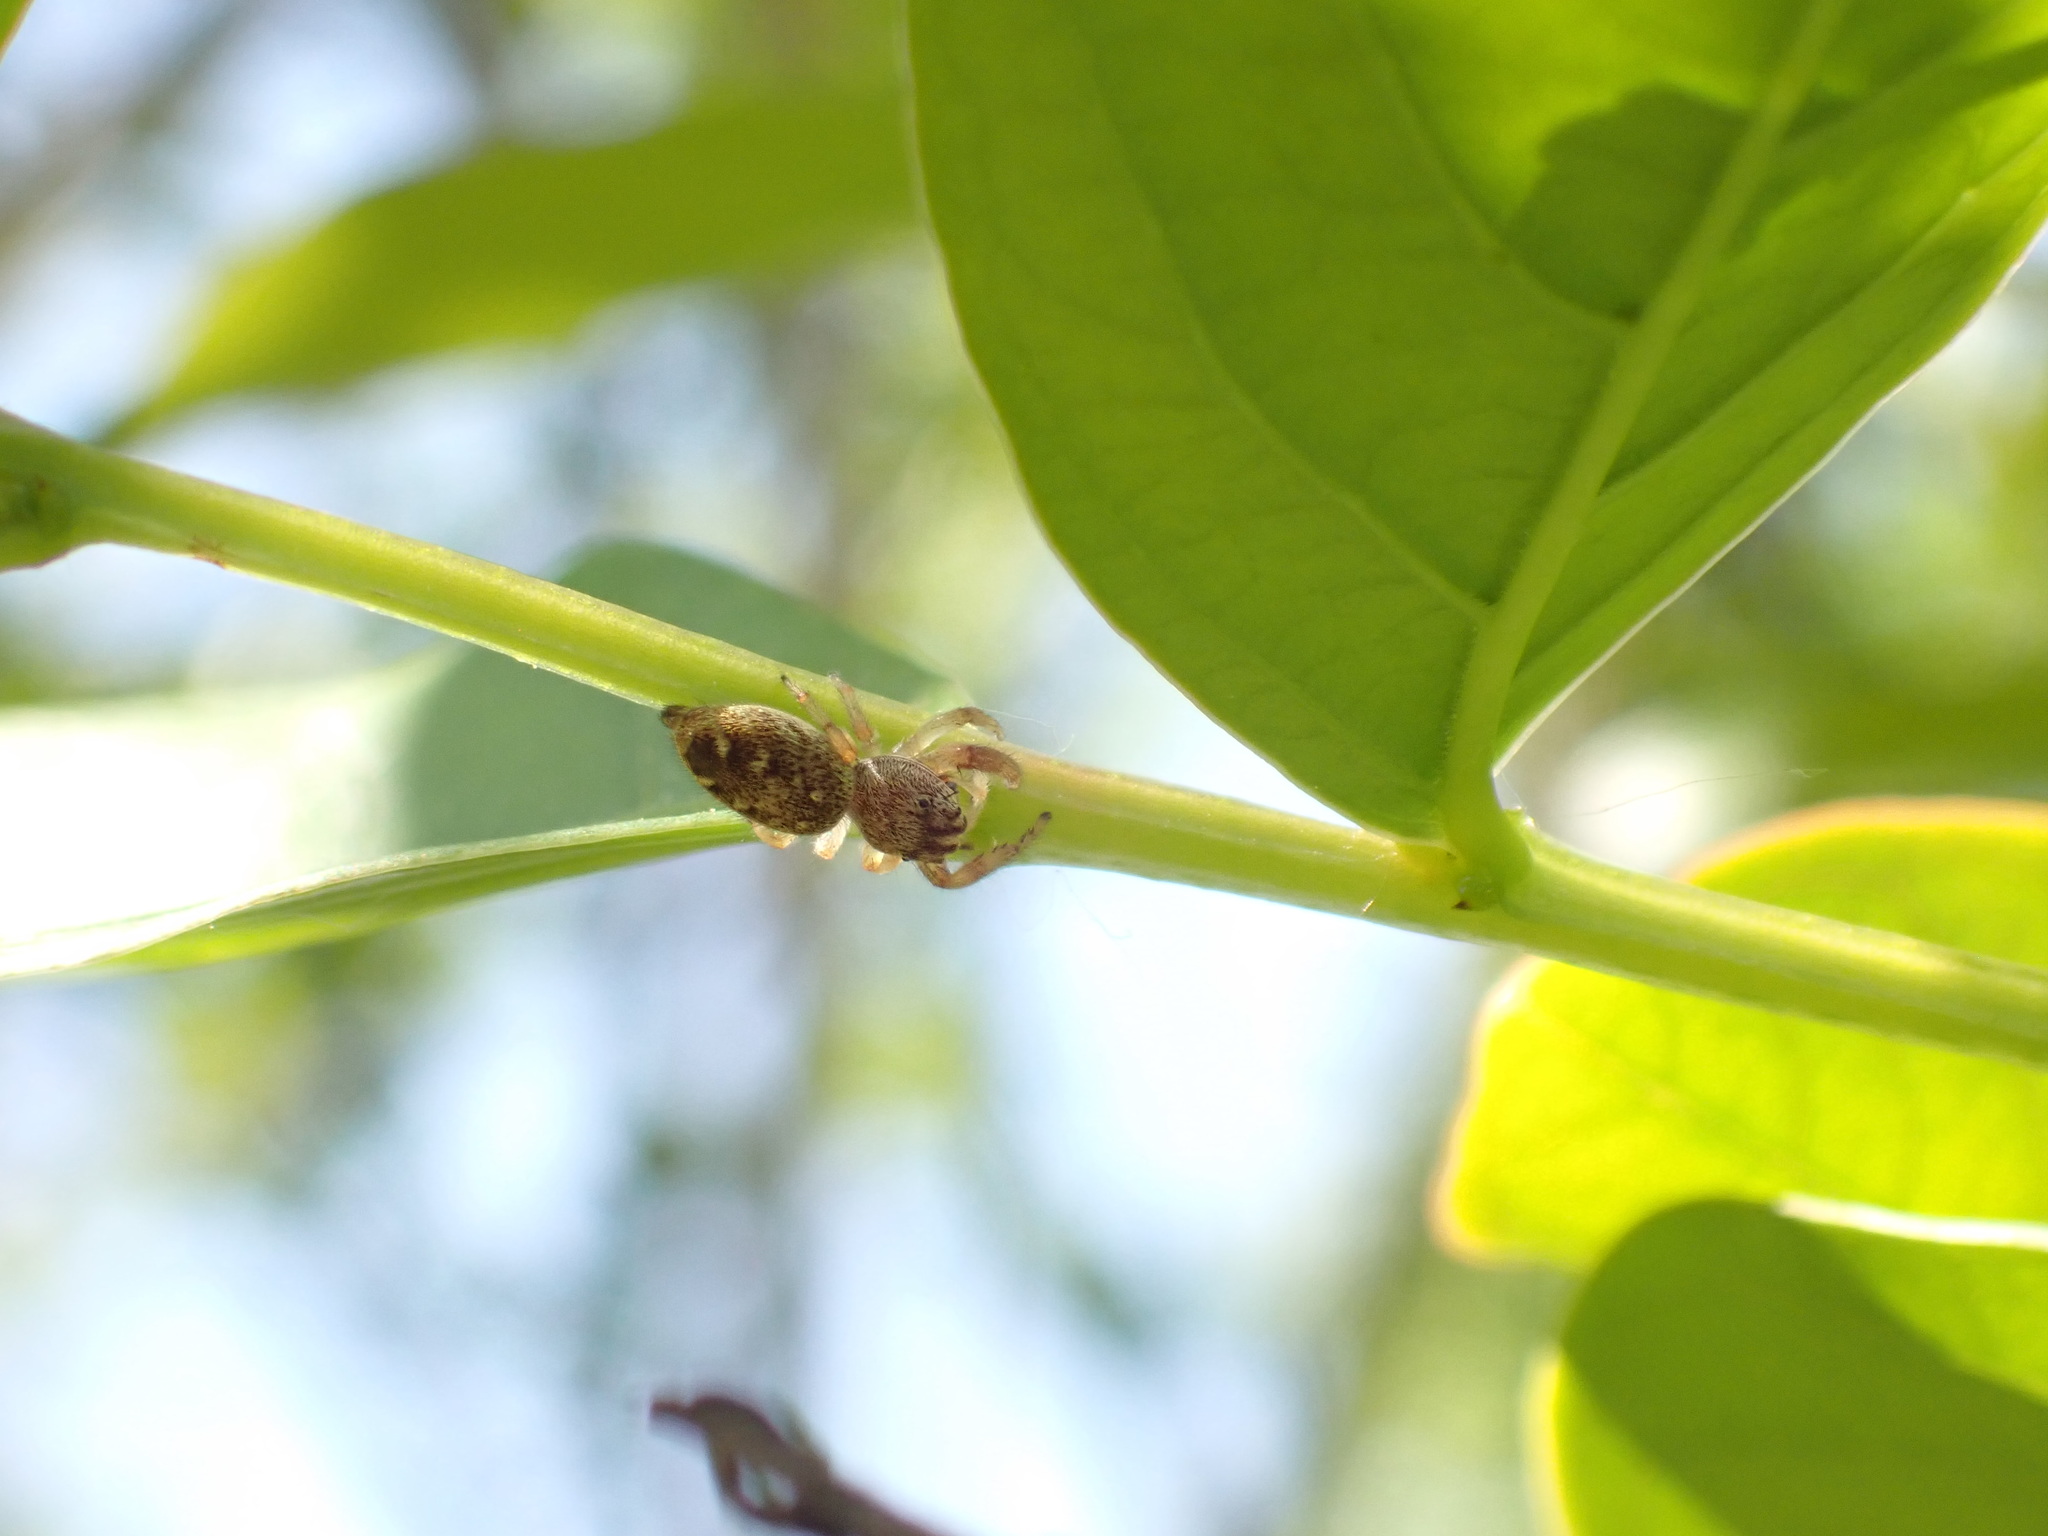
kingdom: Animalia
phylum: Arthropoda
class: Arachnida
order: Araneae
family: Salticidae
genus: Macaroeris
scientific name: Macaroeris nidicolens
